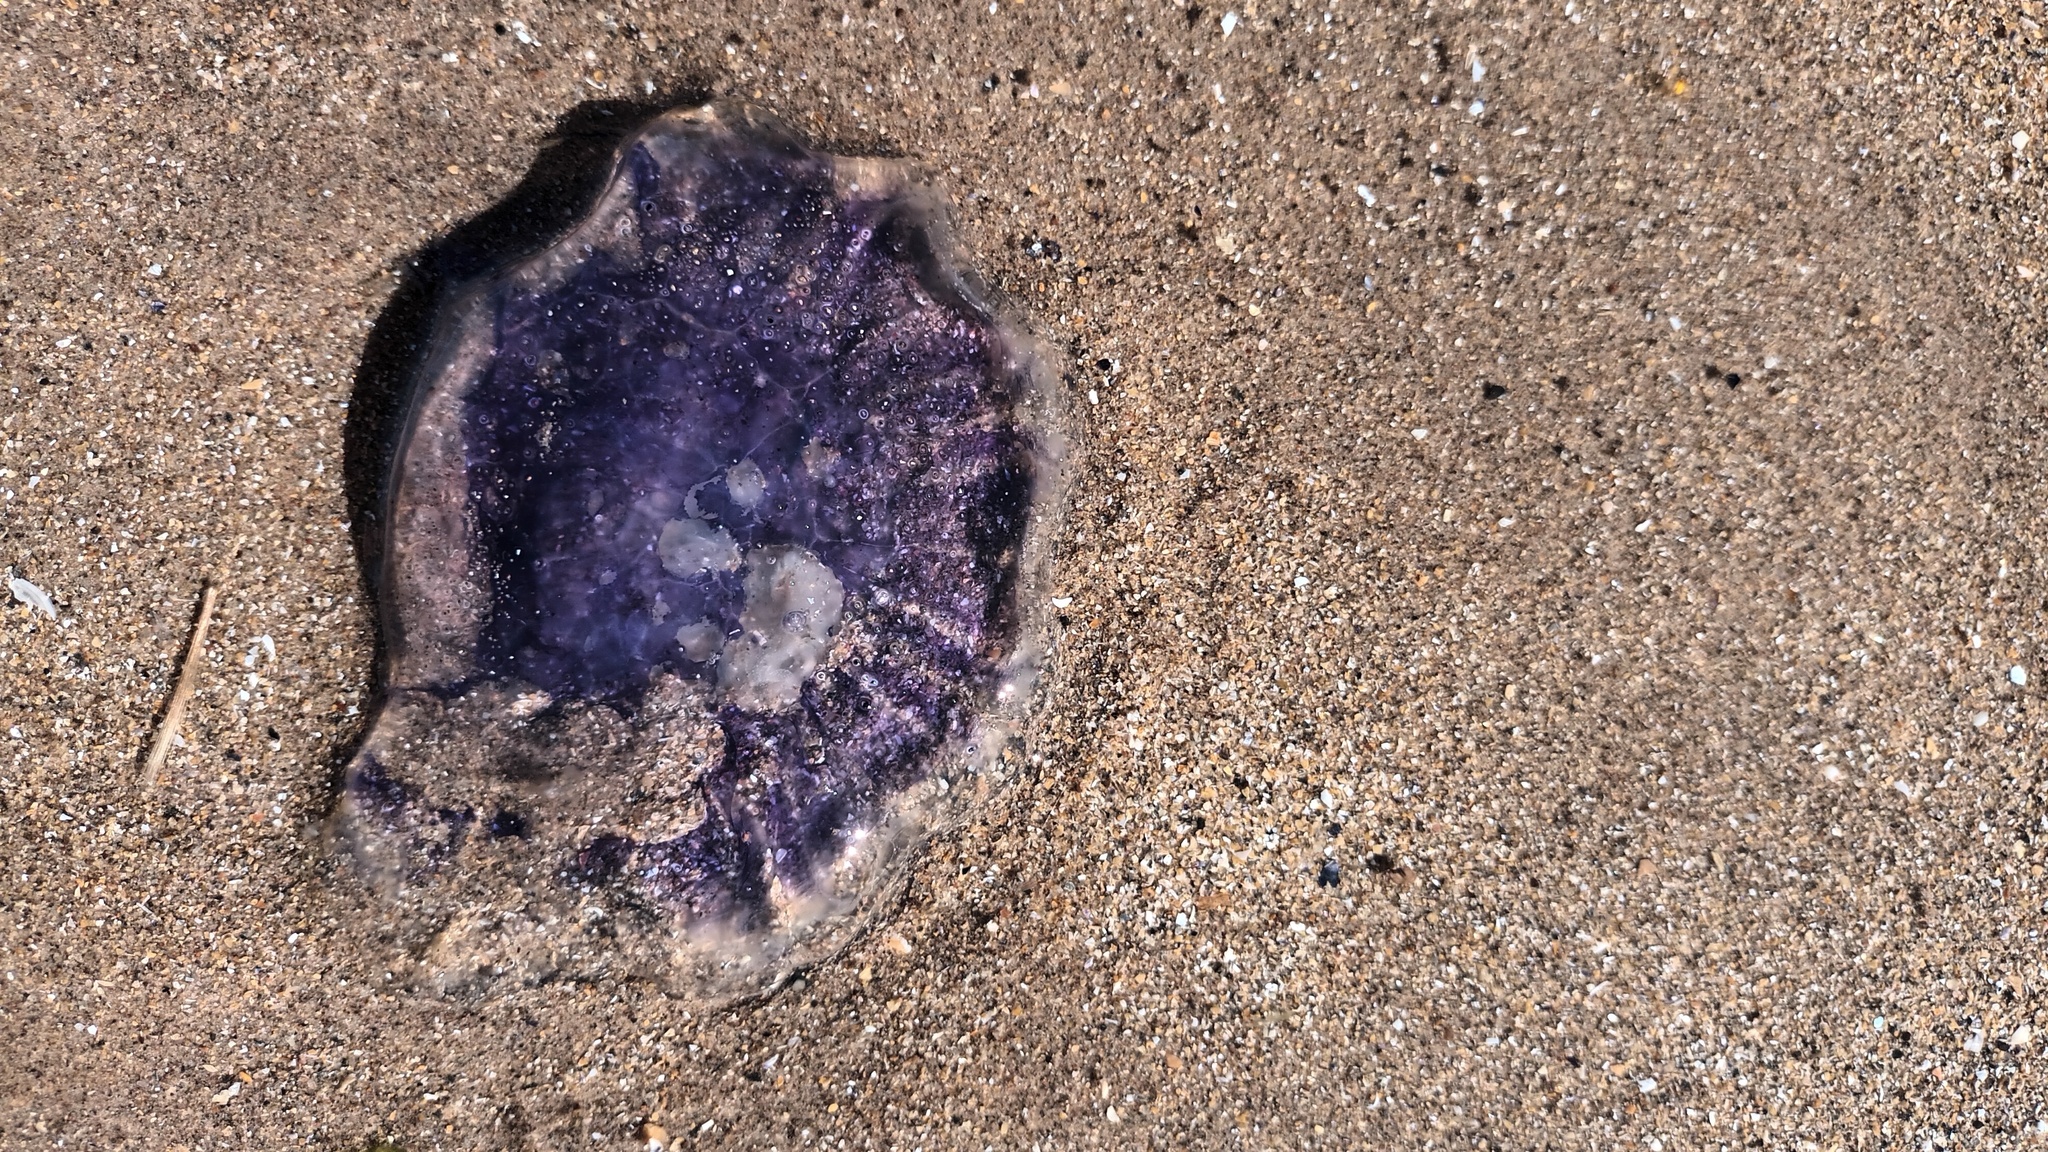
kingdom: Animalia
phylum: Cnidaria
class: Scyphozoa
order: Semaeostomeae
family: Cyaneidae
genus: Cyanea
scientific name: Cyanea lamarckii
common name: Blue jellyfish
